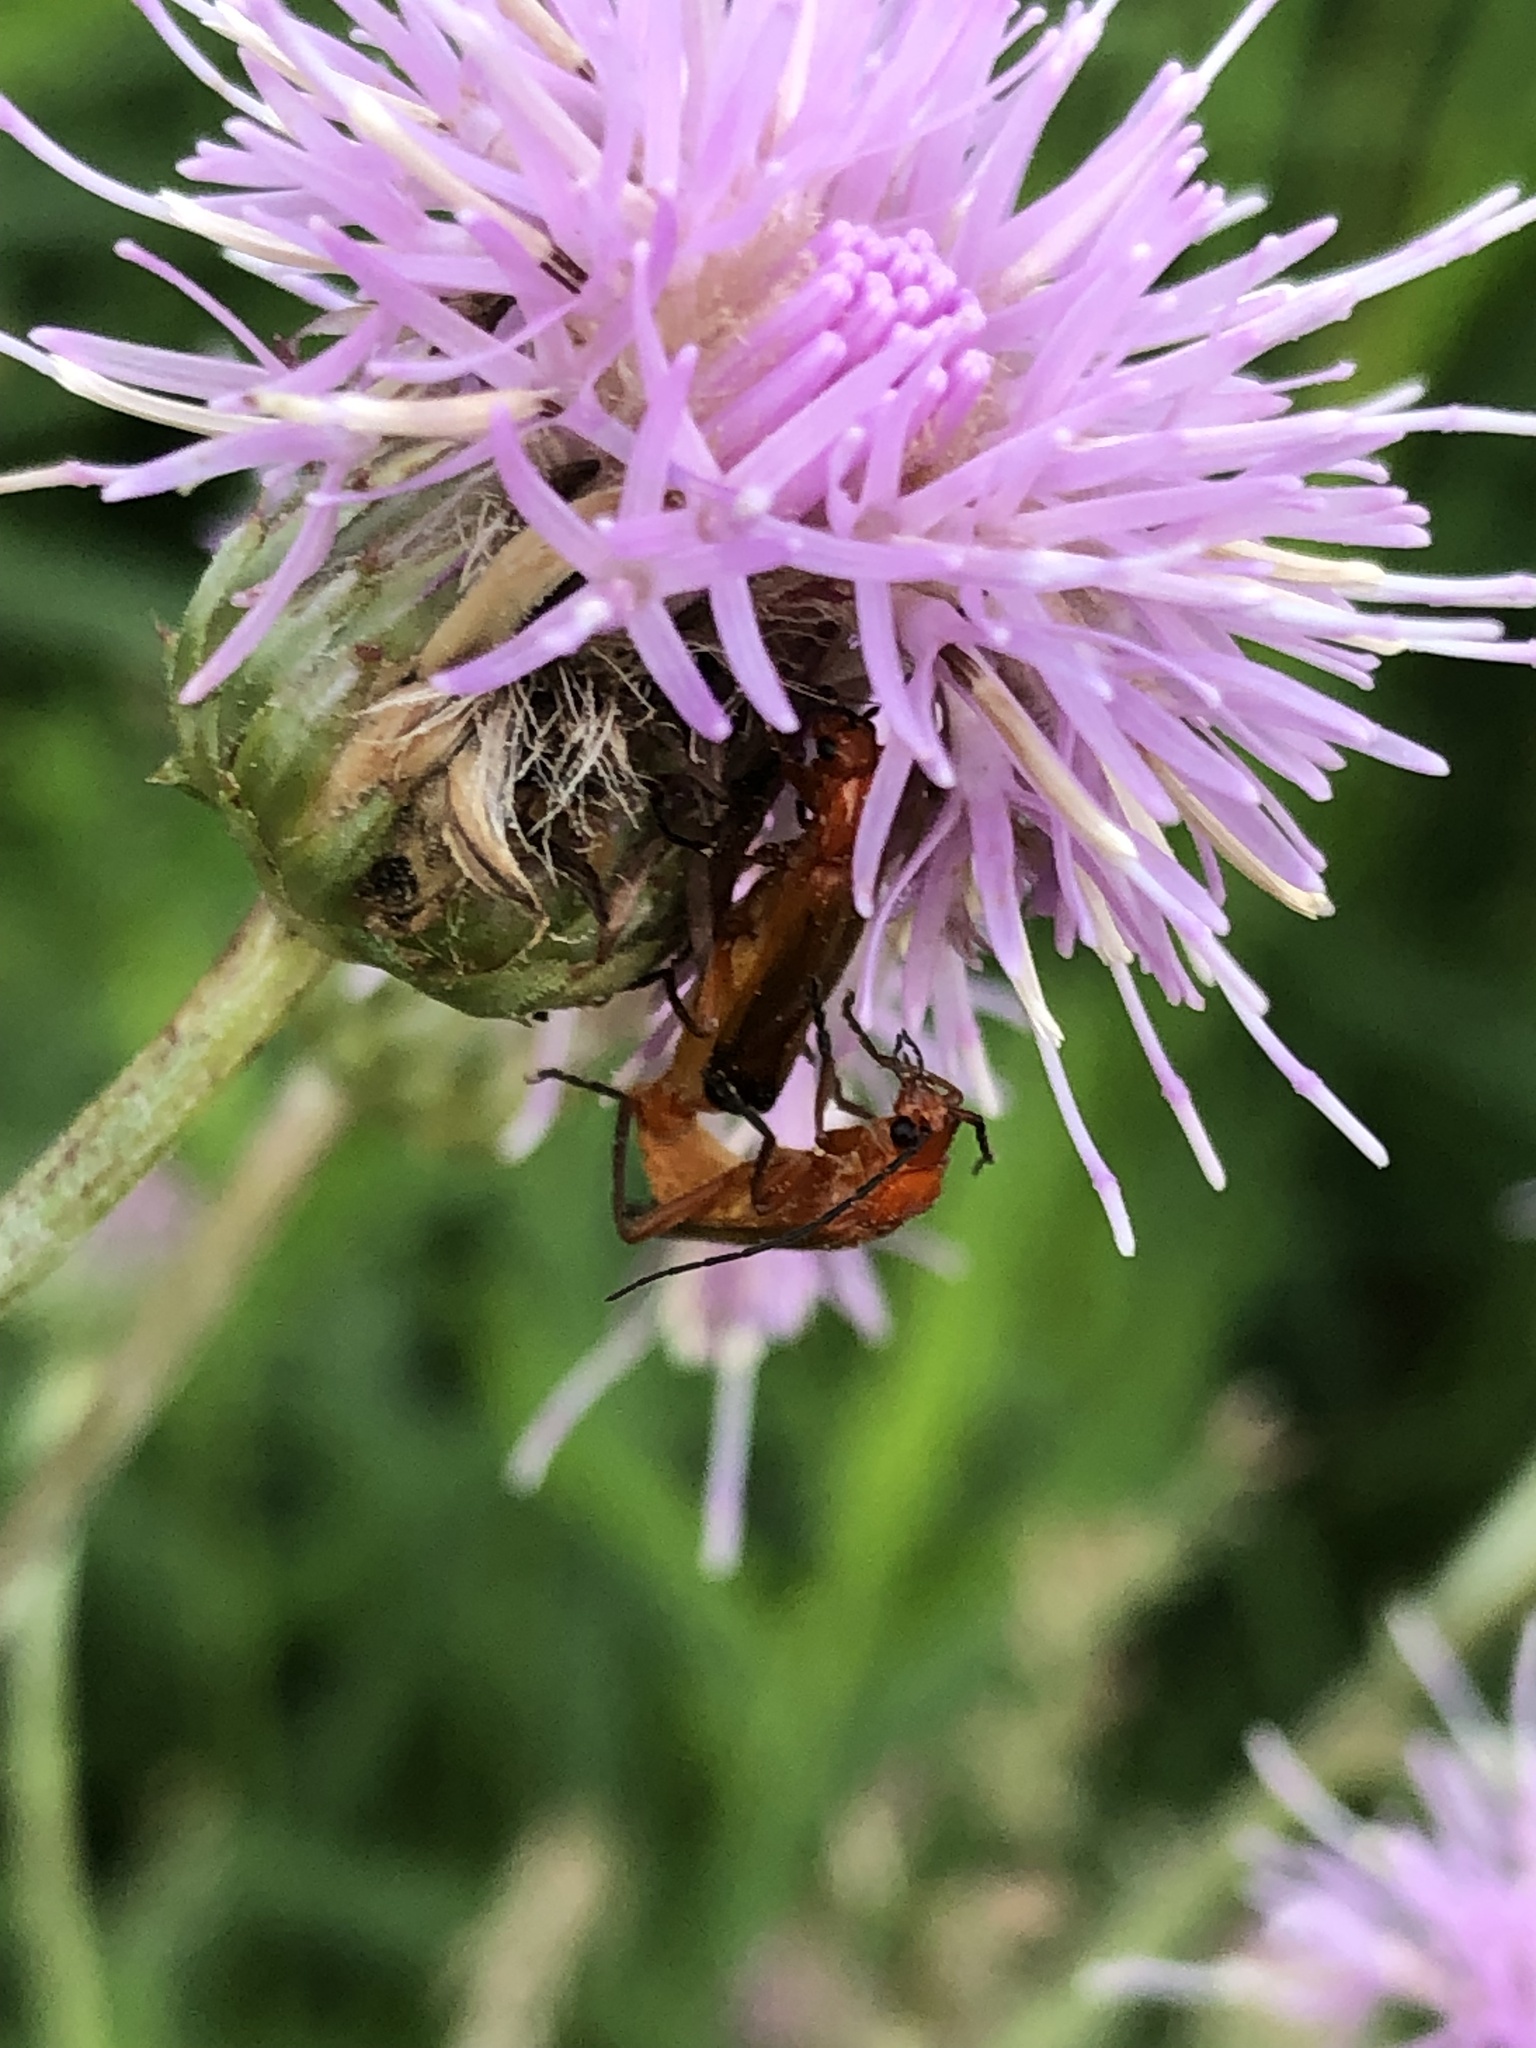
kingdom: Animalia
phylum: Arthropoda
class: Insecta
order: Coleoptera
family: Cantharidae
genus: Rhagonycha
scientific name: Rhagonycha fulva
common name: Common red soldier beetle
